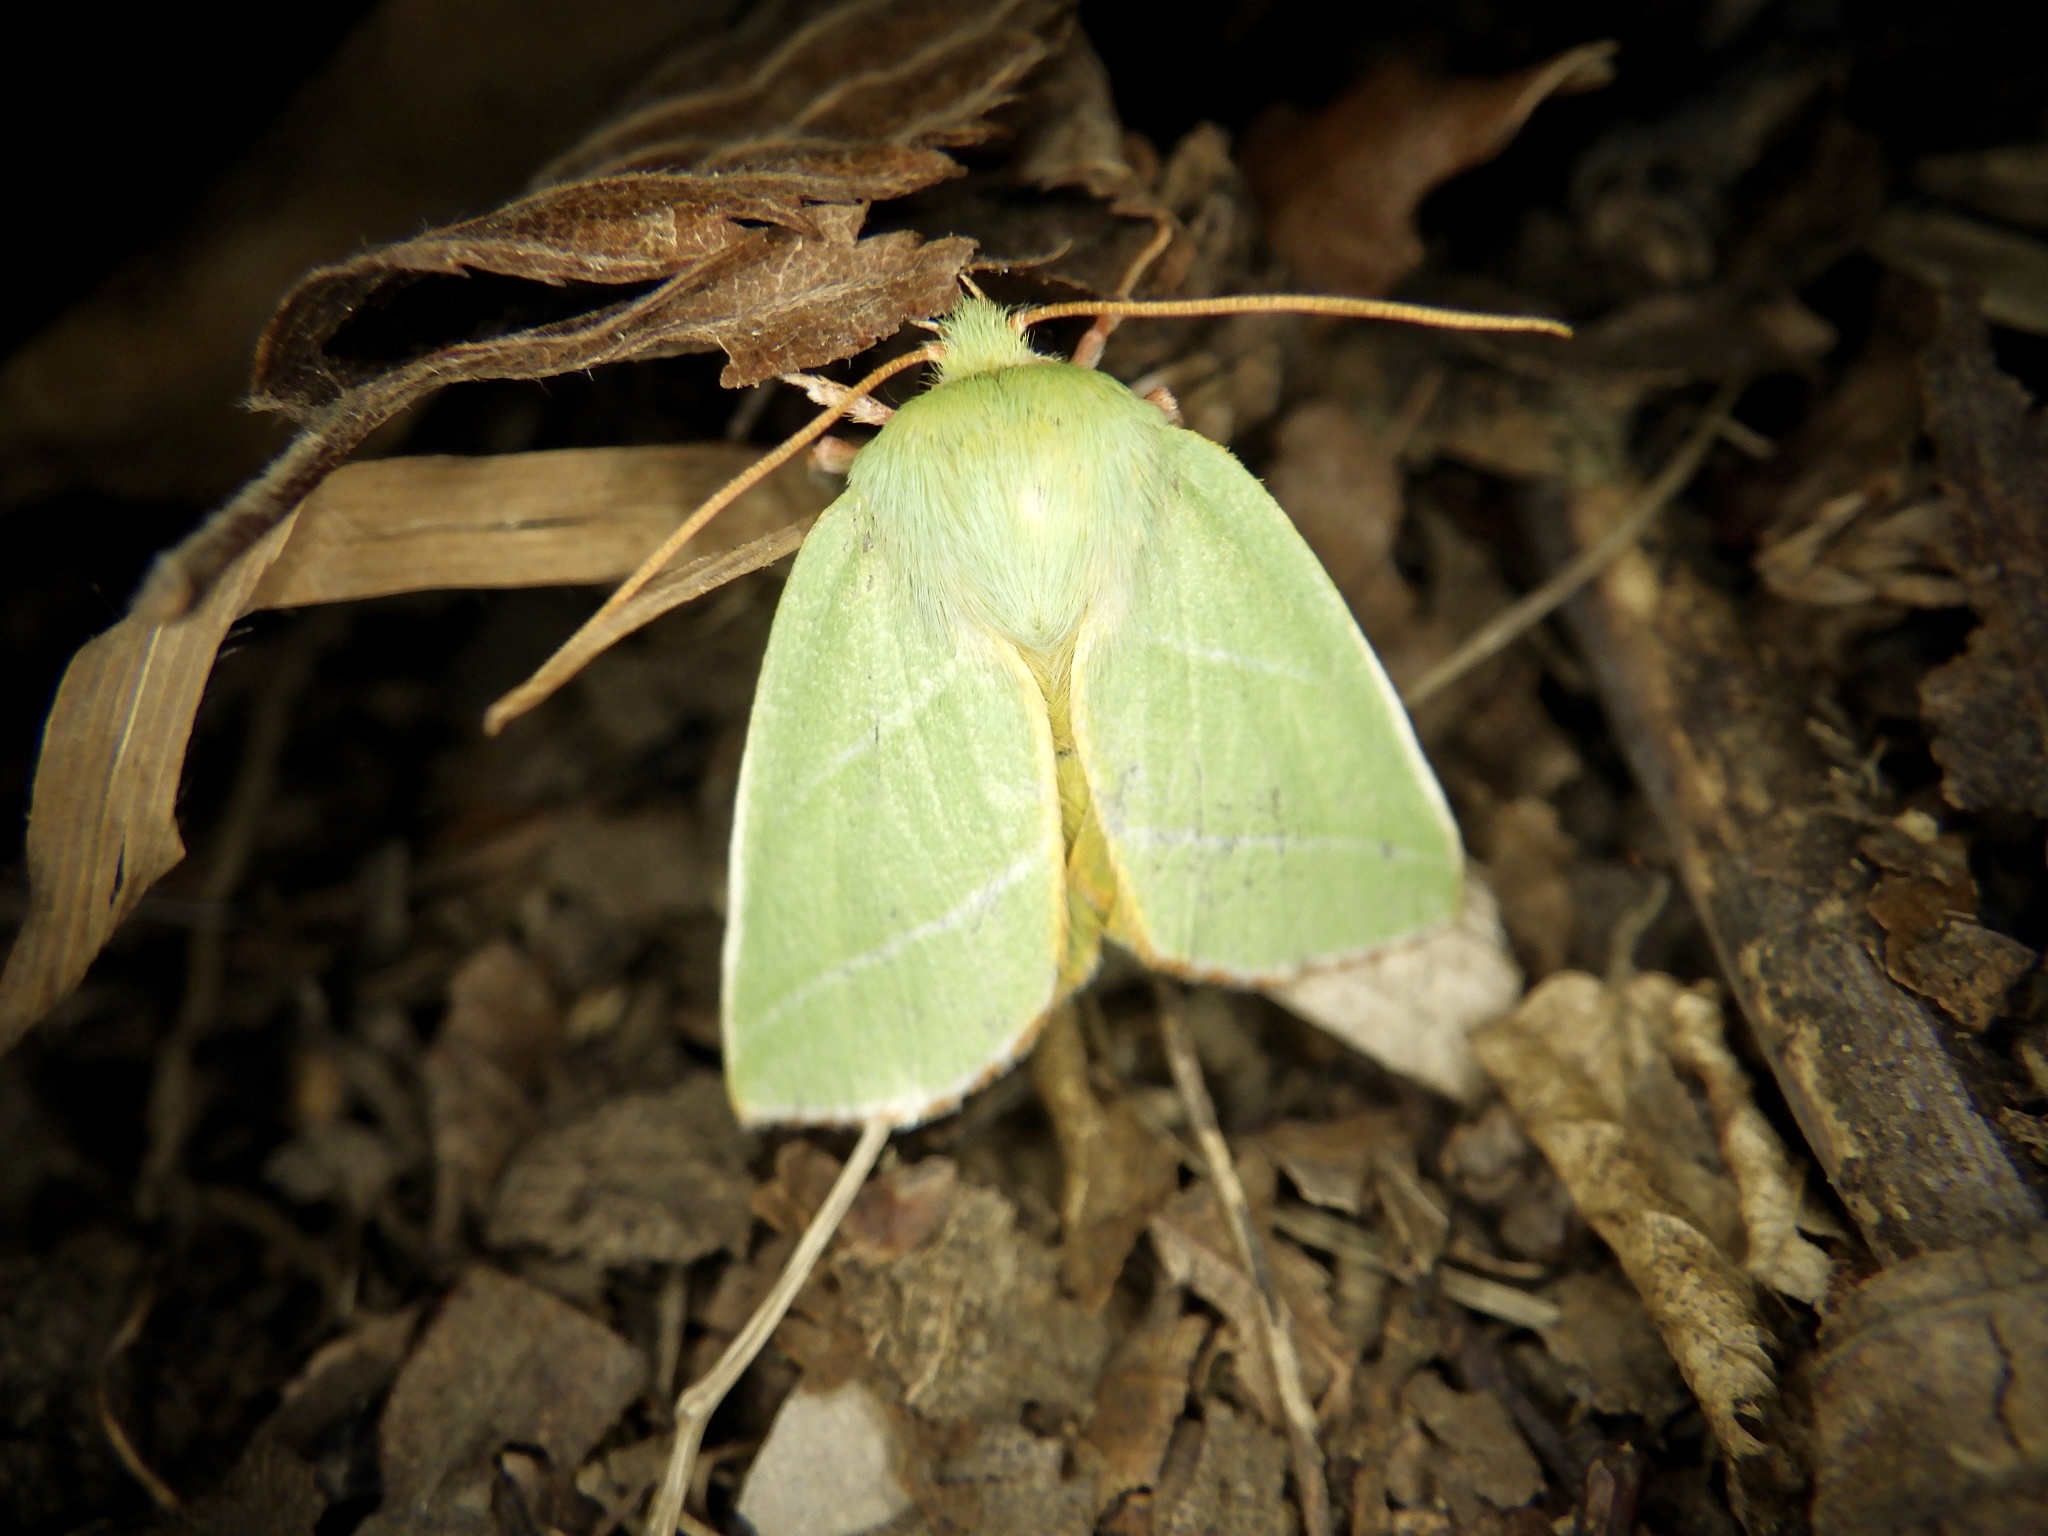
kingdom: Animalia
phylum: Arthropoda
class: Insecta
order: Lepidoptera
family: Nolidae
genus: Pseudoips
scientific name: Pseudoips prasinana
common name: Green silver-lines
